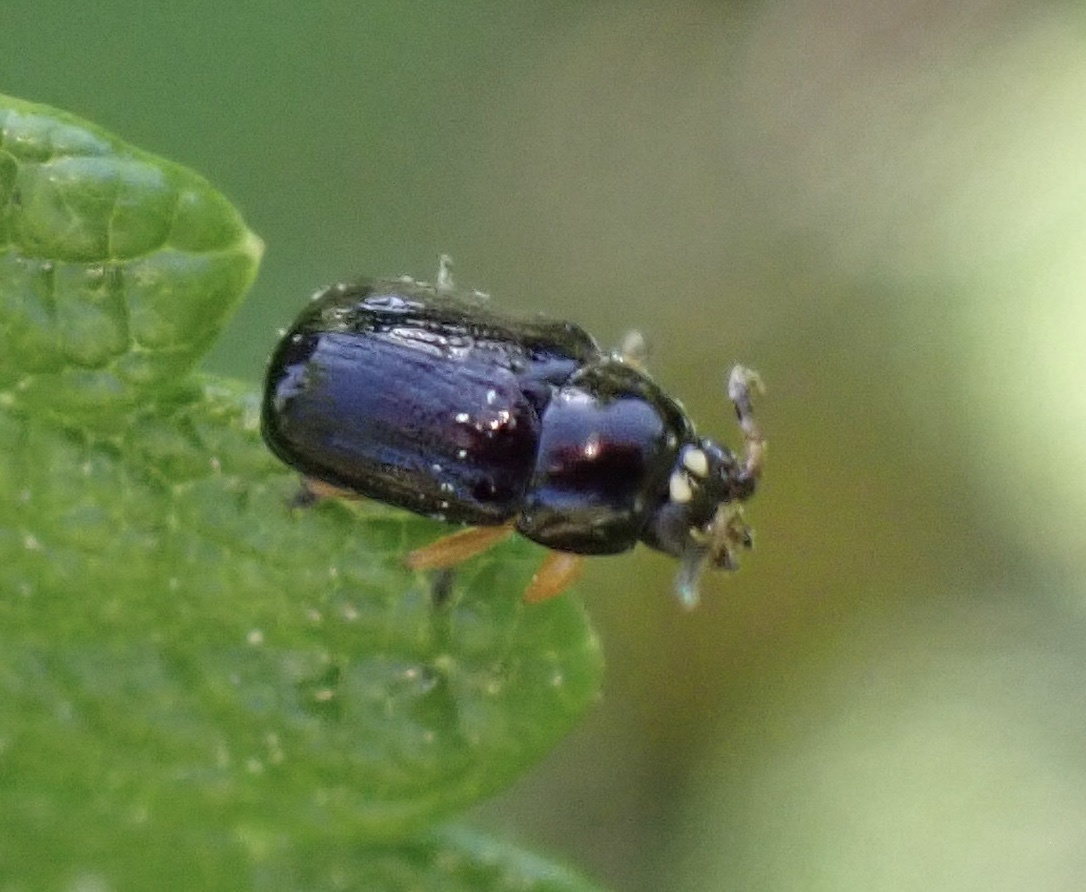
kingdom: Animalia
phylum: Arthropoda
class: Insecta
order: Coleoptera
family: Chrysomelidae
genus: Cryptocephalus
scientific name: Cryptocephalus ocellatus
